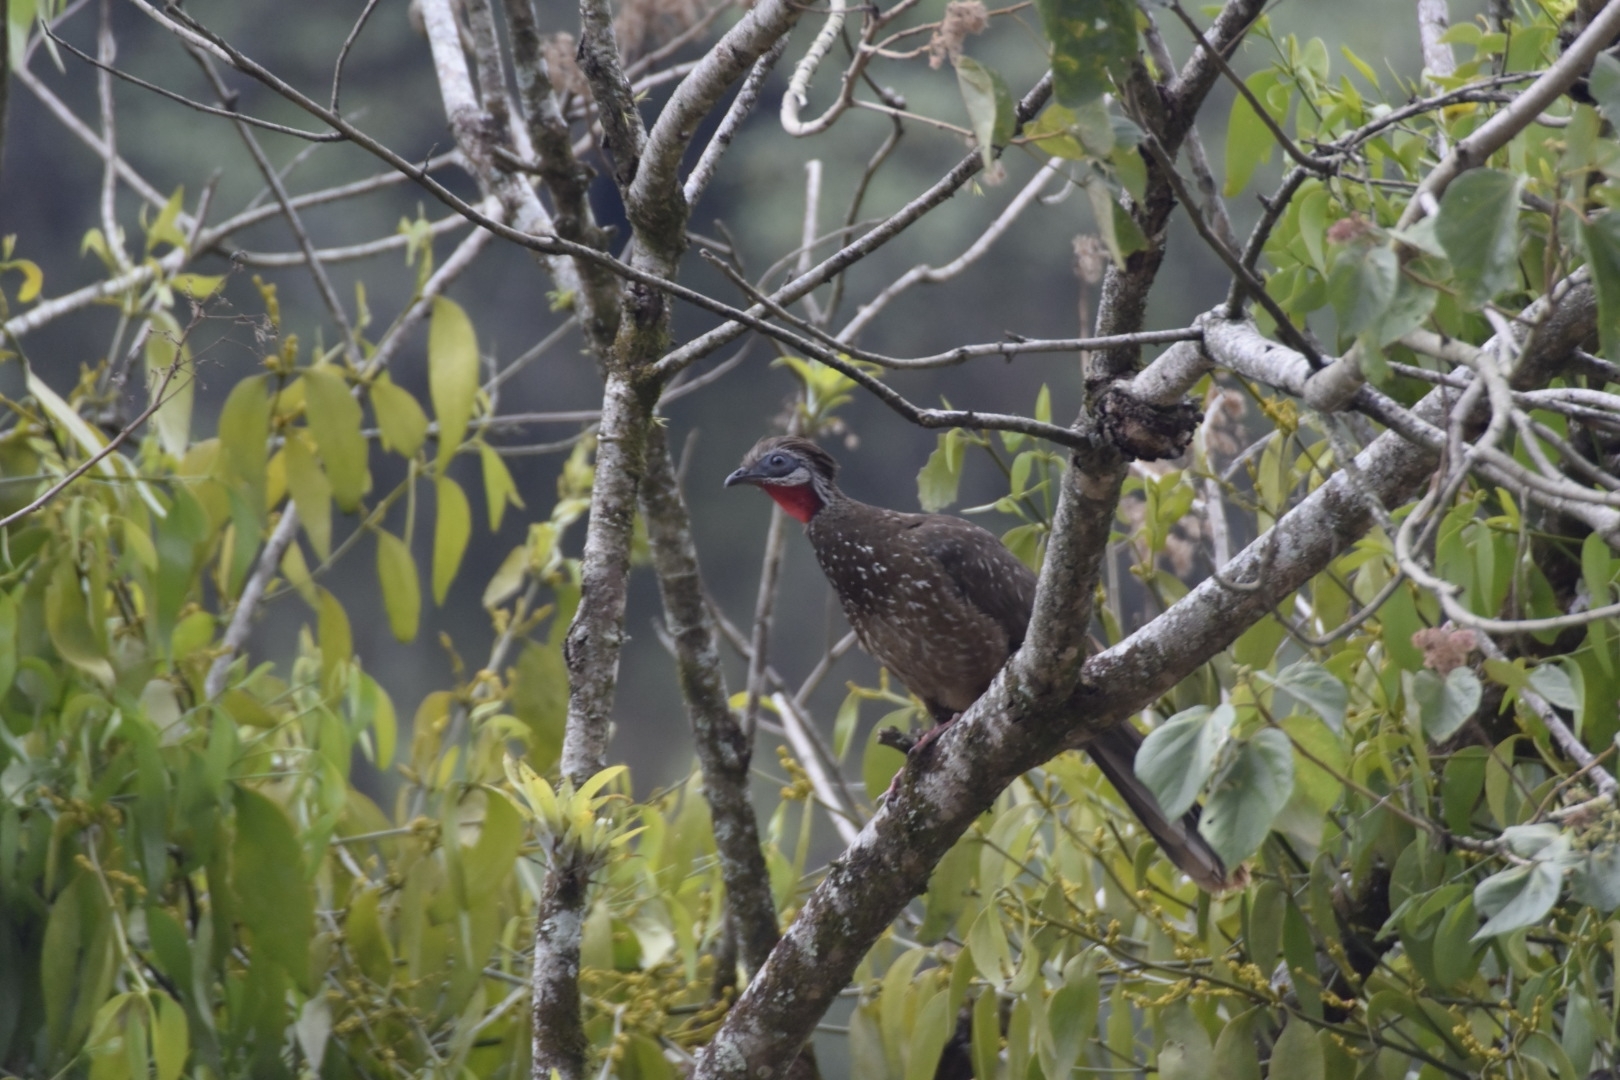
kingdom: Animalia
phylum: Chordata
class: Aves
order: Galliformes
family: Cracidae
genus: Penelope
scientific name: Penelope argyrotis
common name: Band-tailed guan
